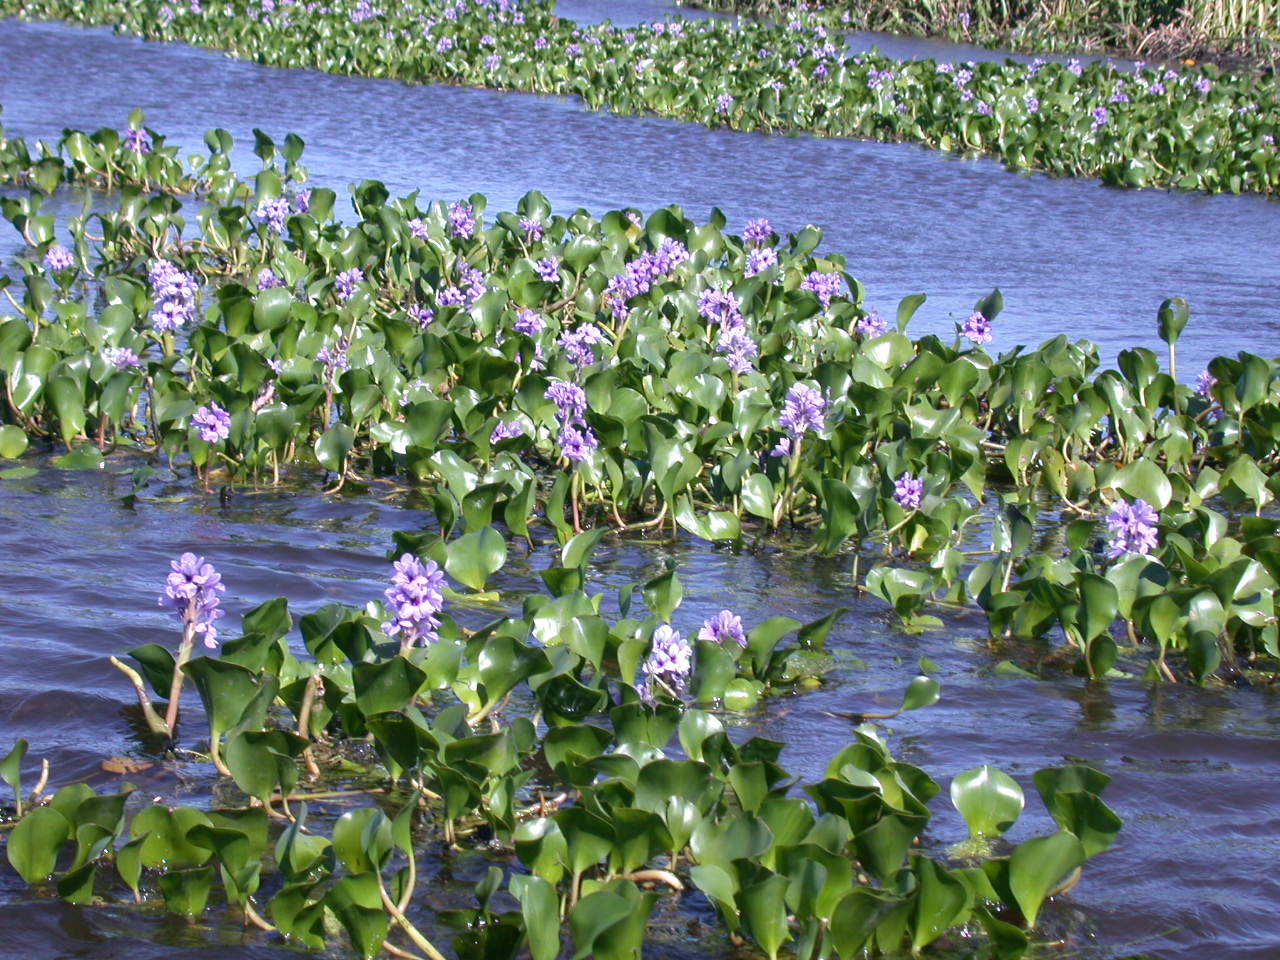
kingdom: Plantae
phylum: Tracheophyta
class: Liliopsida
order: Commelinales
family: Pontederiaceae
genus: Pontederia
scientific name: Pontederia azurea
